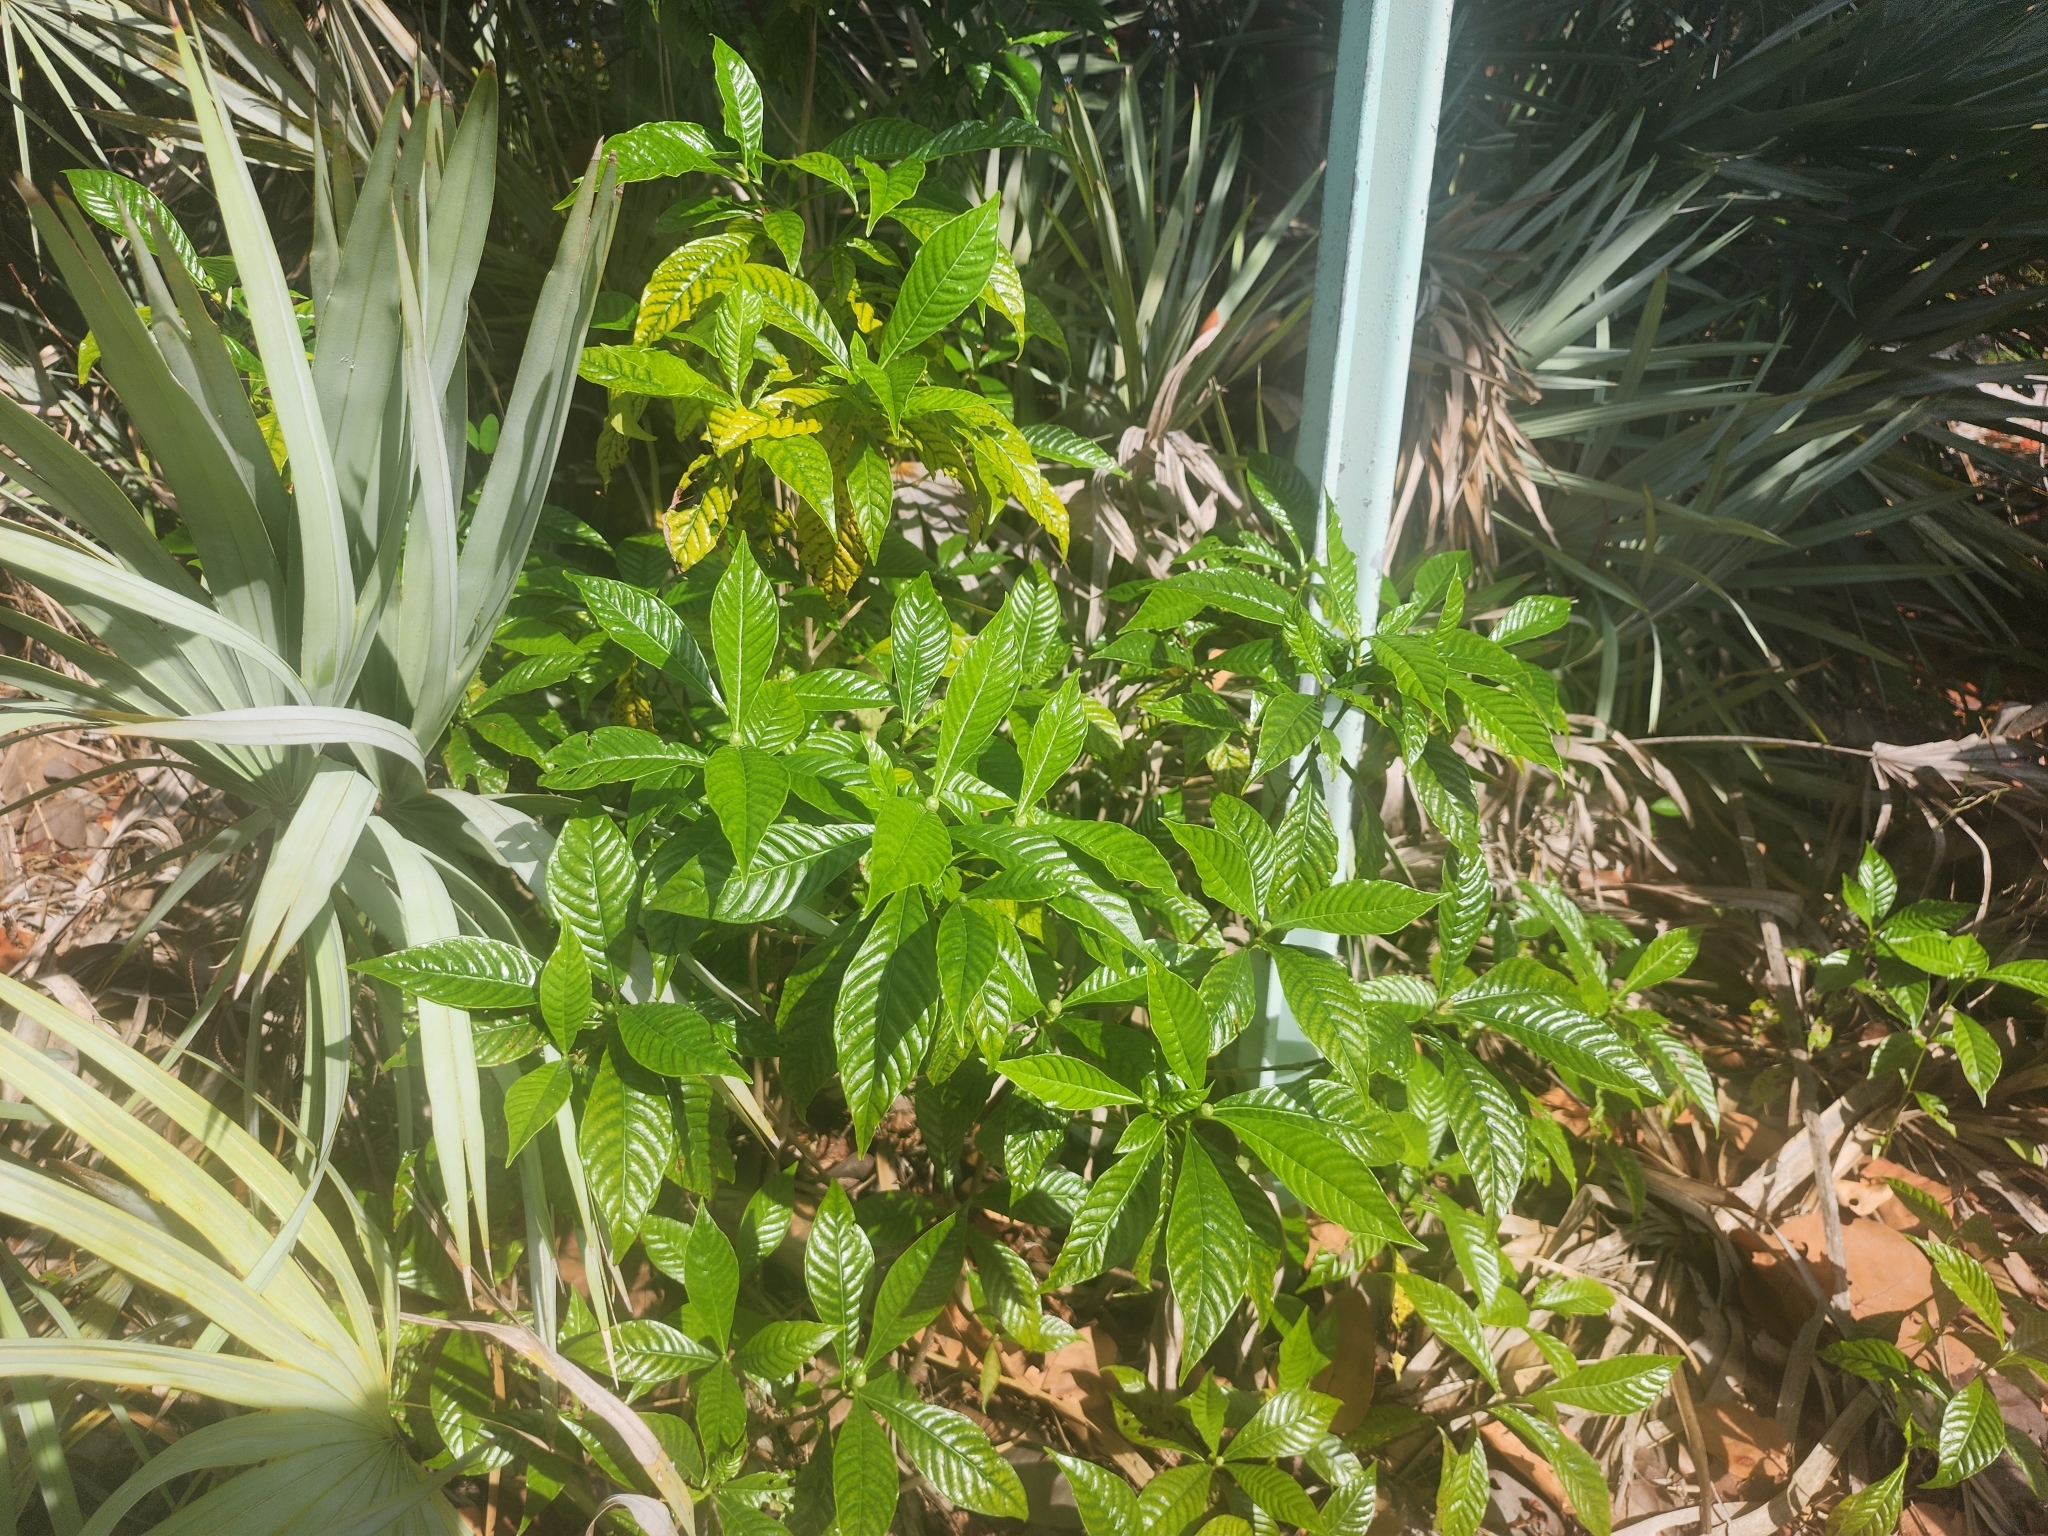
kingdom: Plantae
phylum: Tracheophyta
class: Magnoliopsida
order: Gentianales
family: Rubiaceae
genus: Psychotria
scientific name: Psychotria nervosa
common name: Bastard cankerberry
